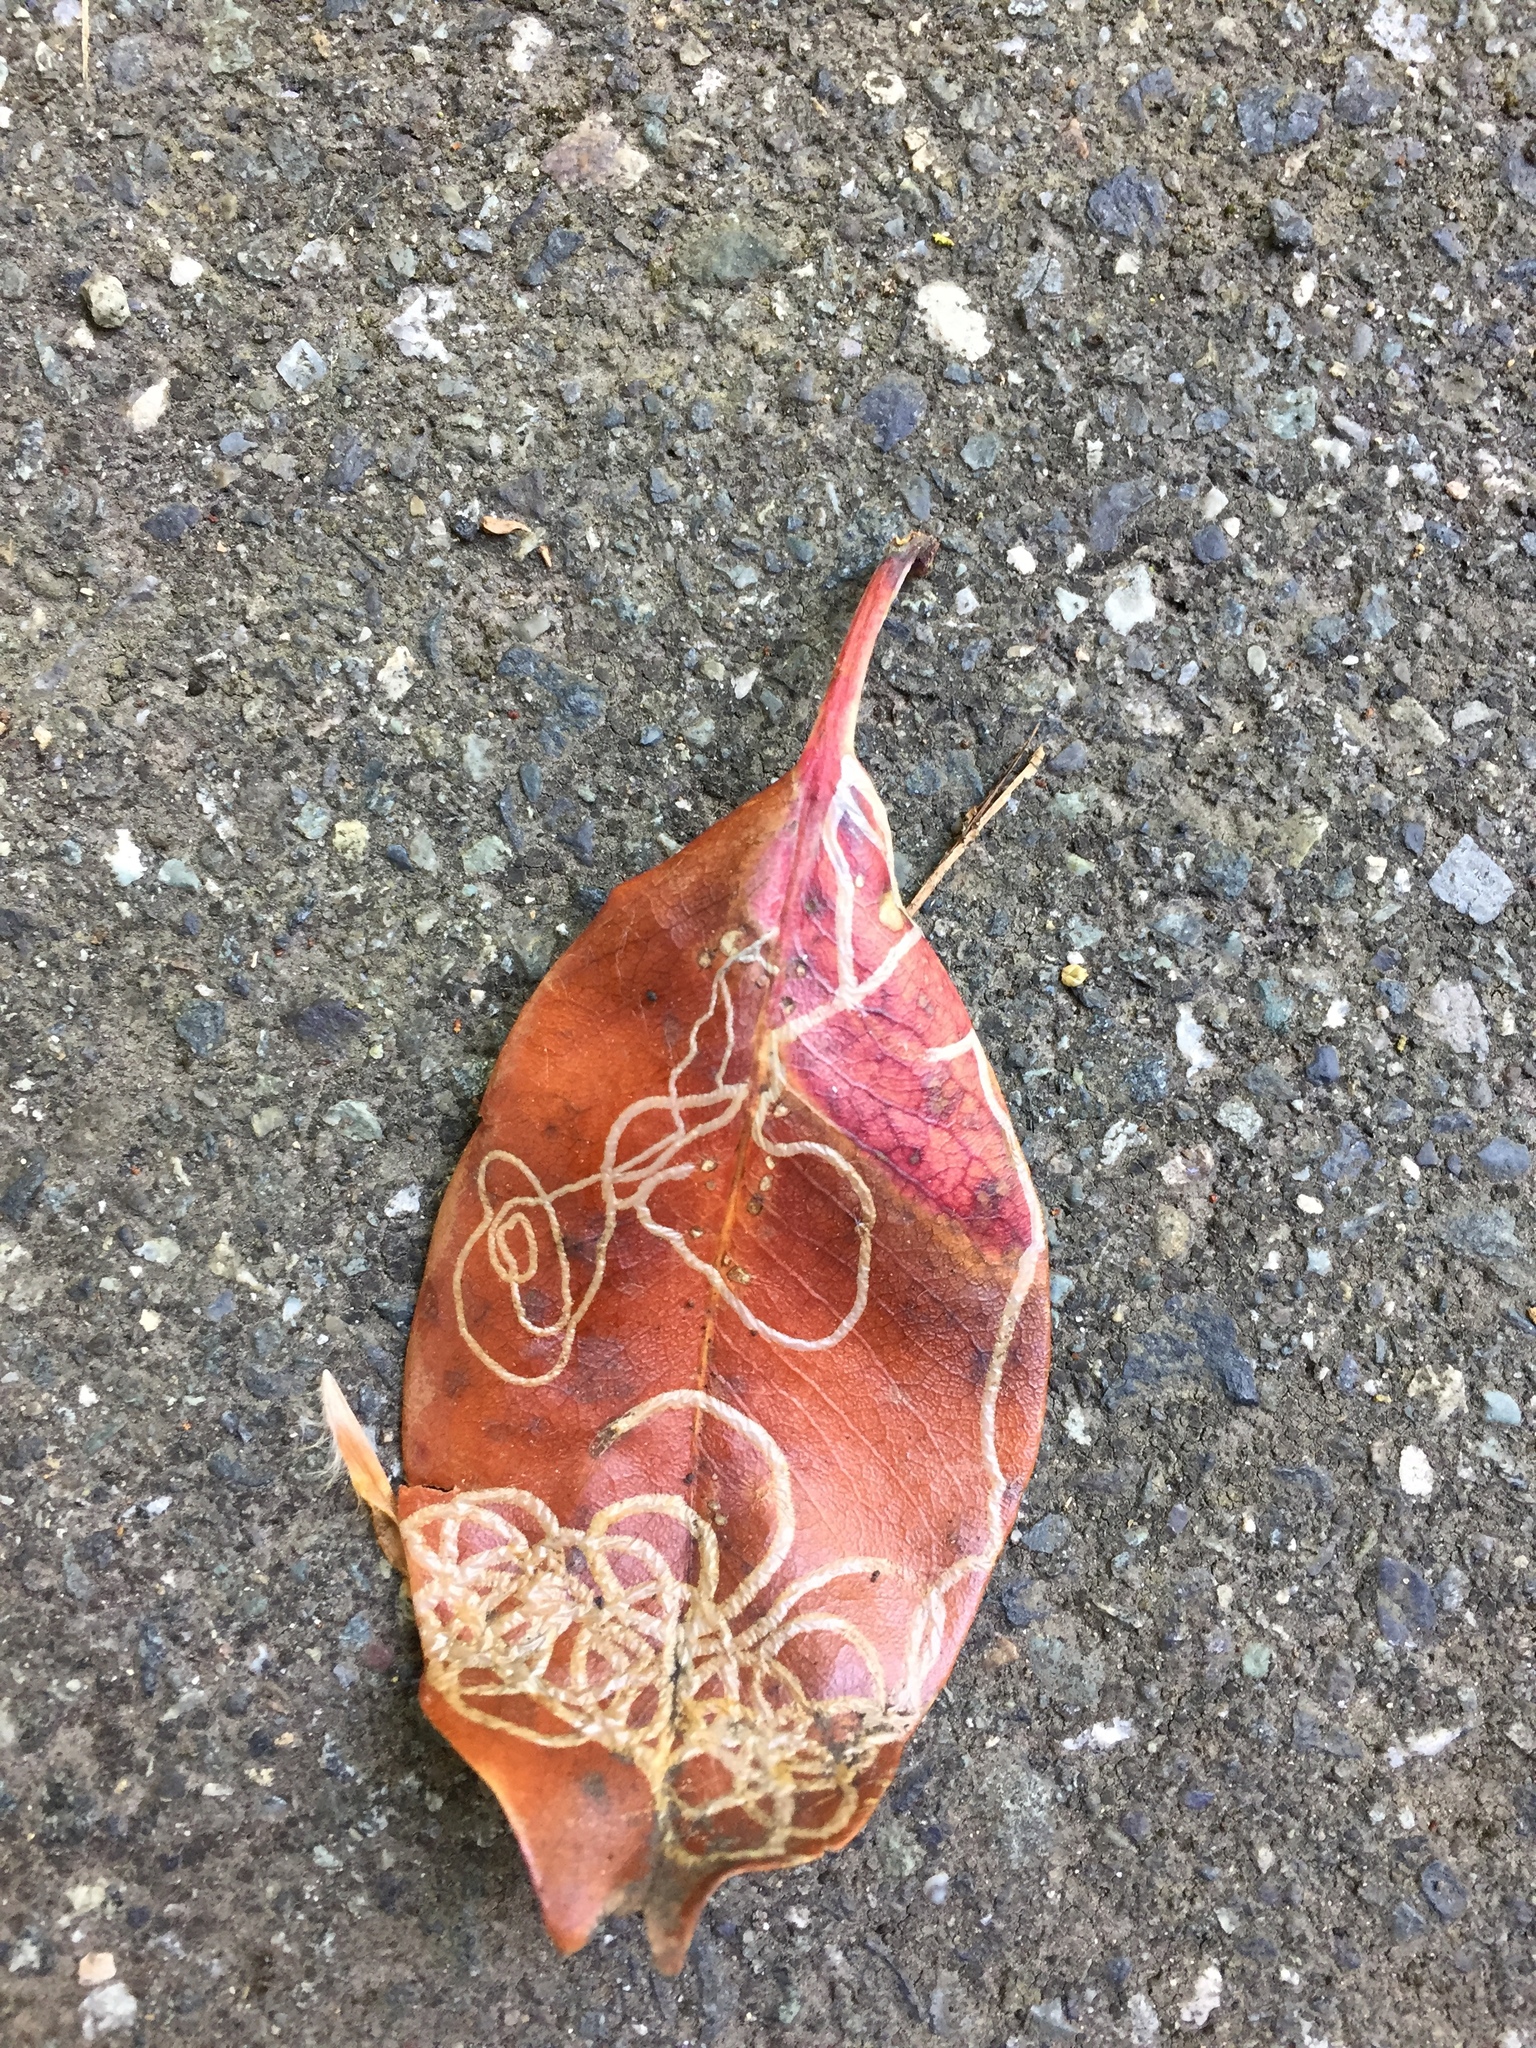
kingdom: Animalia
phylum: Arthropoda
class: Insecta
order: Lepidoptera
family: Gracillariidae
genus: Marmara
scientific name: Marmara arbutiella
